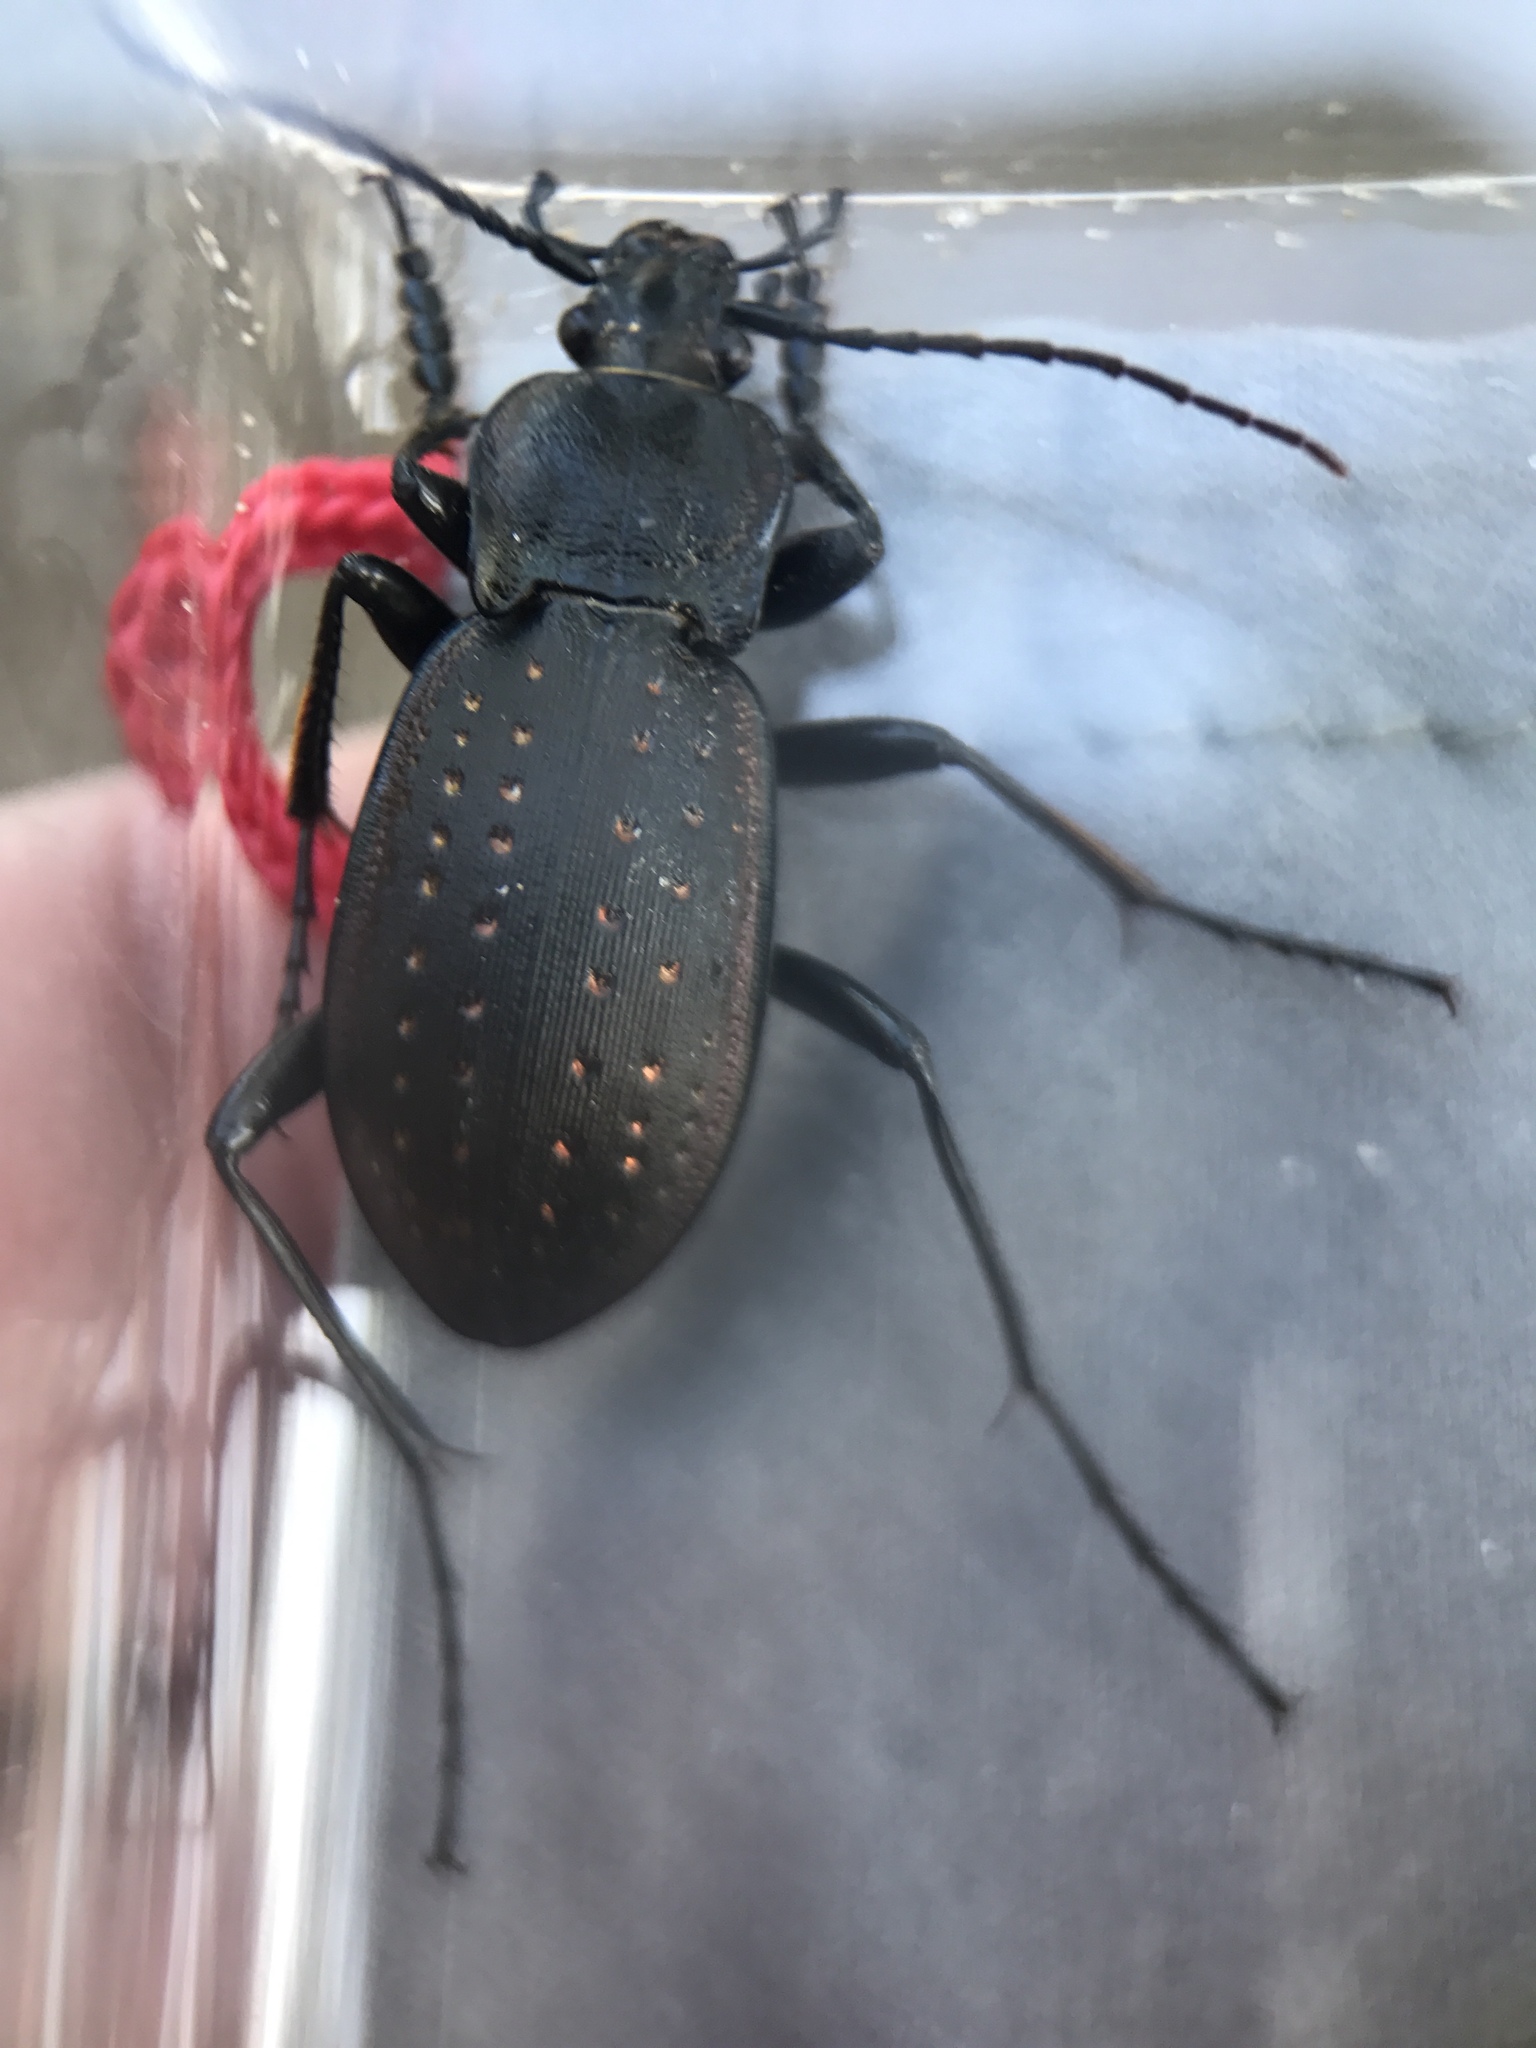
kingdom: Animalia
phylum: Arthropoda
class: Insecta
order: Coleoptera
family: Carabidae
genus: Carabus
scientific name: Carabus hortensis
